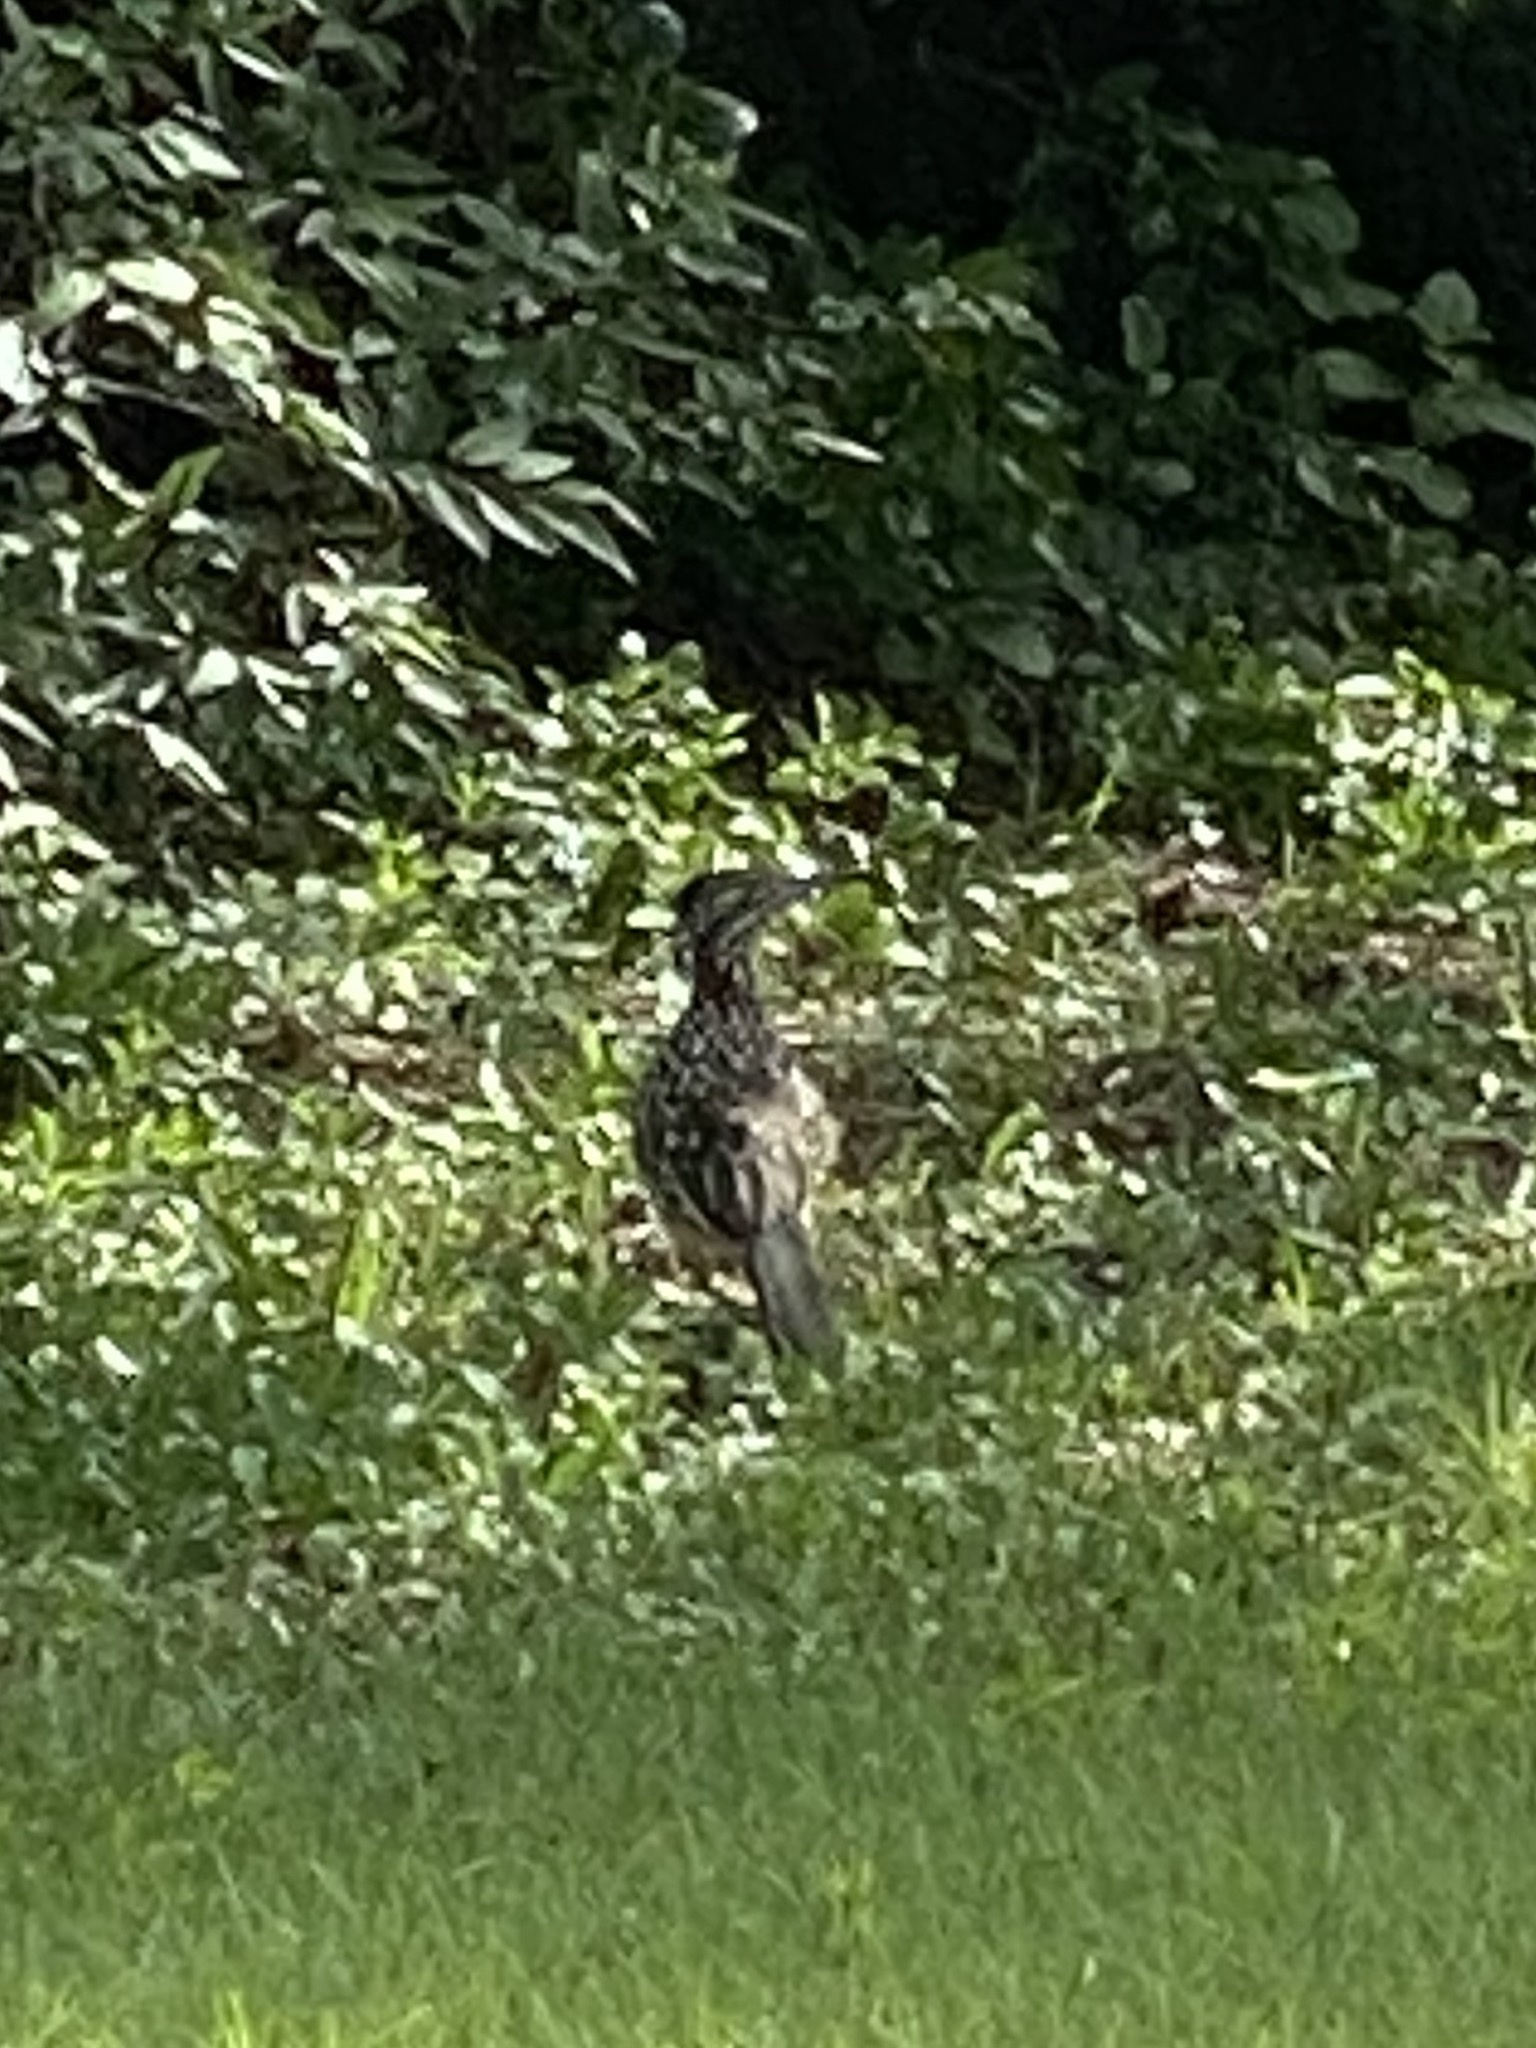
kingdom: Animalia
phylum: Chordata
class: Aves
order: Cuculiformes
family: Cuculidae
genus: Geococcyx
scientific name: Geococcyx californianus
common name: Greater roadrunner
